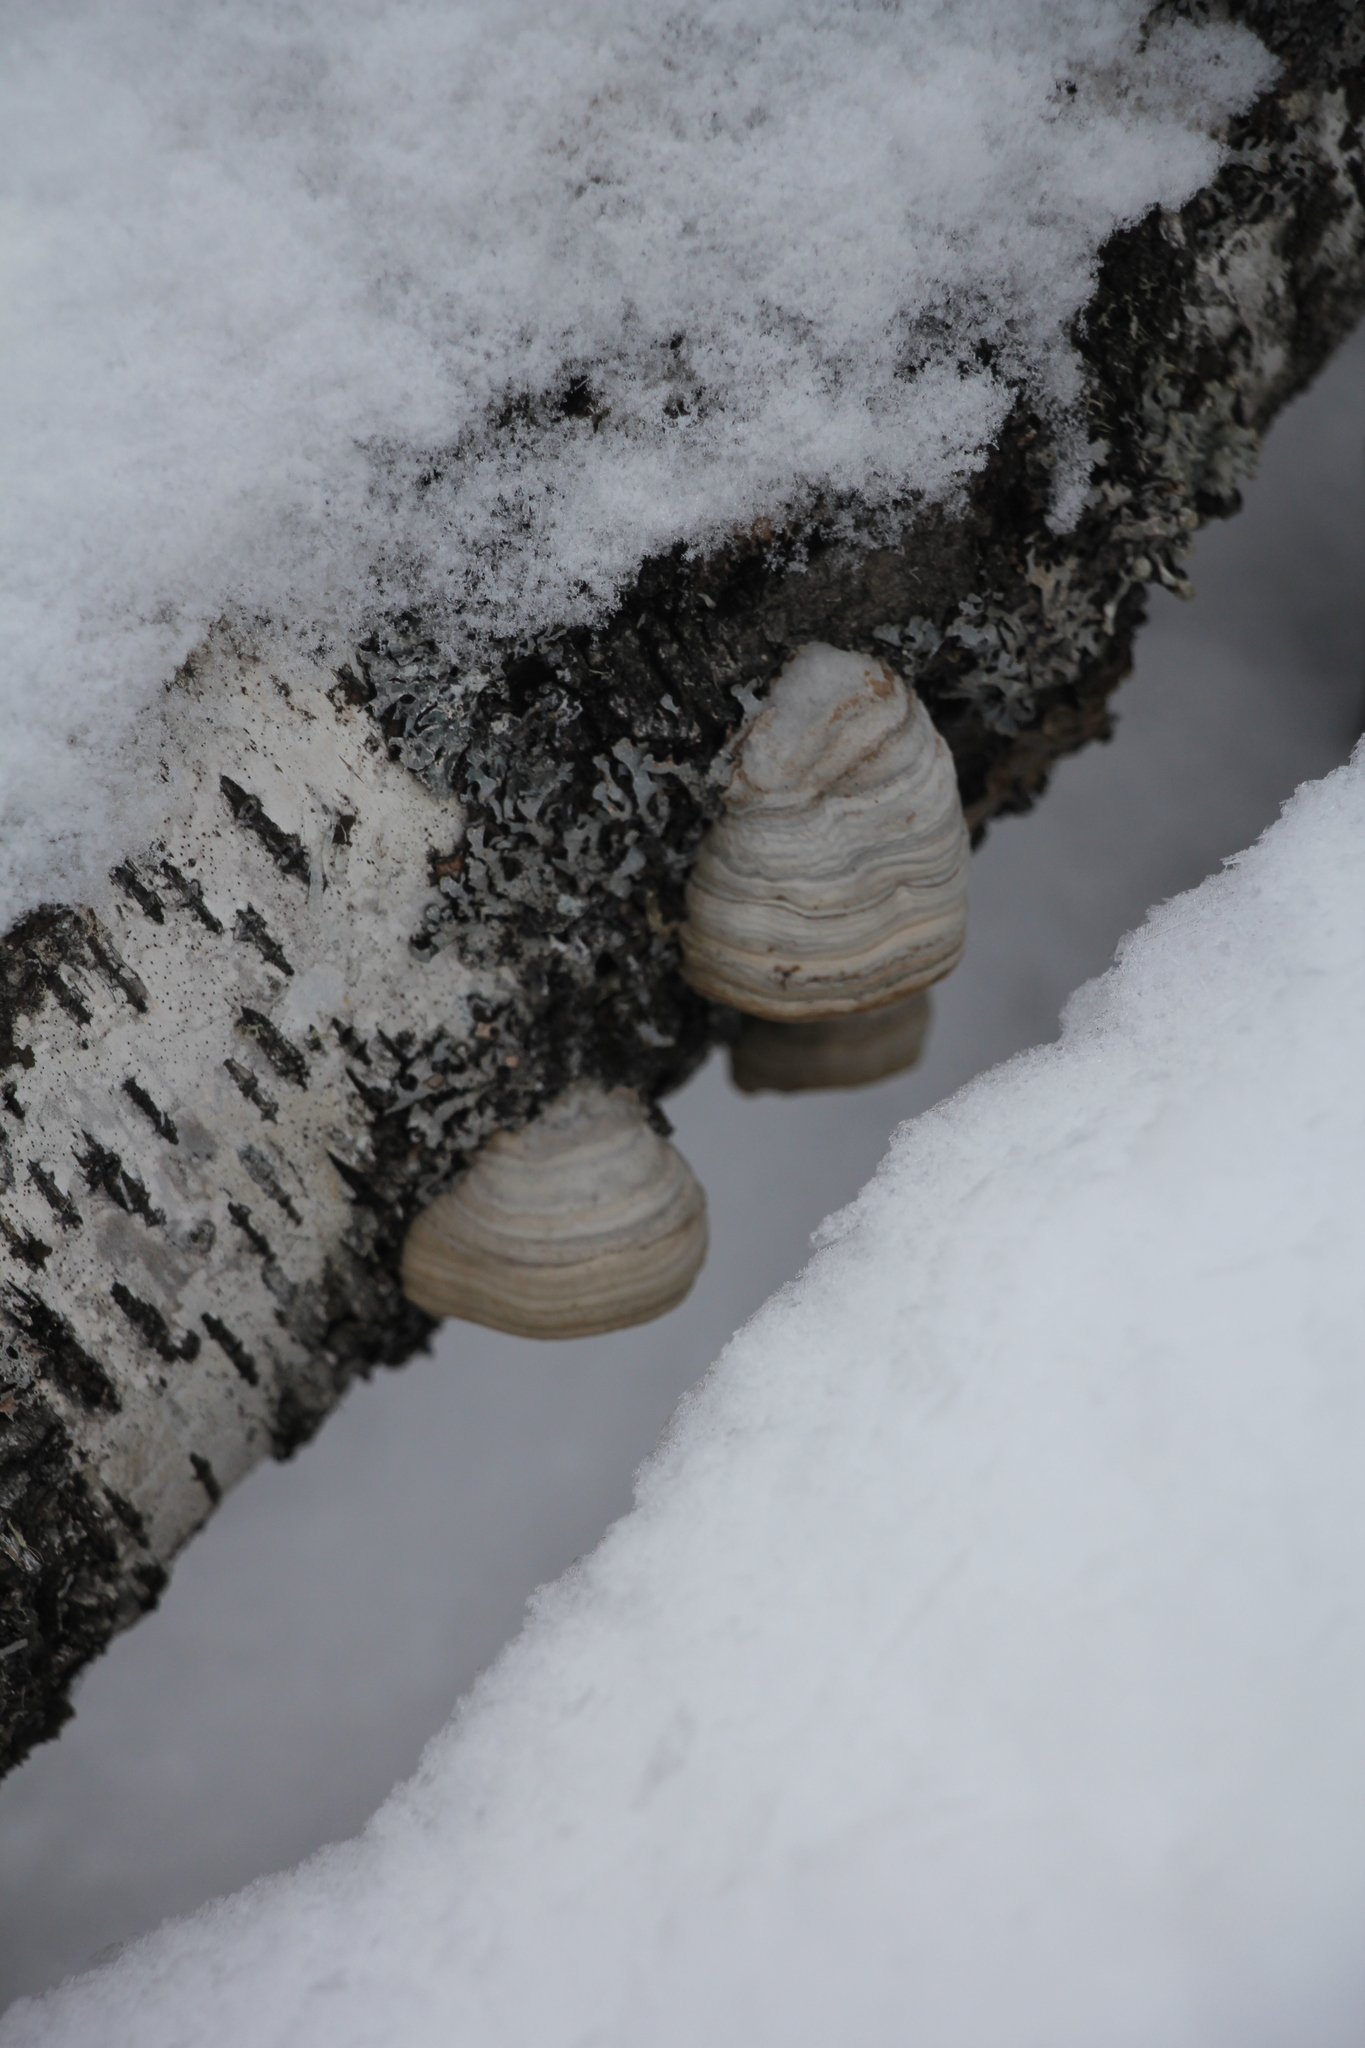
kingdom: Fungi
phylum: Basidiomycota
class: Agaricomycetes
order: Polyporales
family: Polyporaceae
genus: Fomes
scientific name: Fomes fomentarius
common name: Hoof fungus
